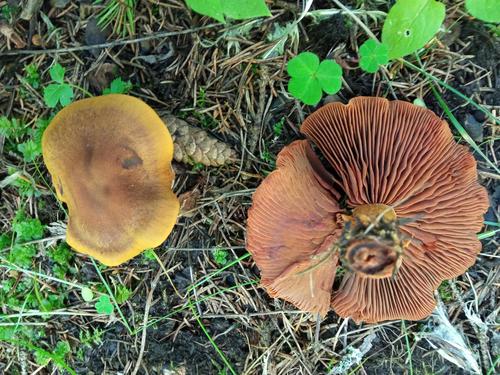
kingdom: Fungi
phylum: Basidiomycota
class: Agaricomycetes
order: Agaricales
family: Cortinariaceae
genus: Cortinarius
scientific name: Cortinarius semisanguineus
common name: Surprise webcap
